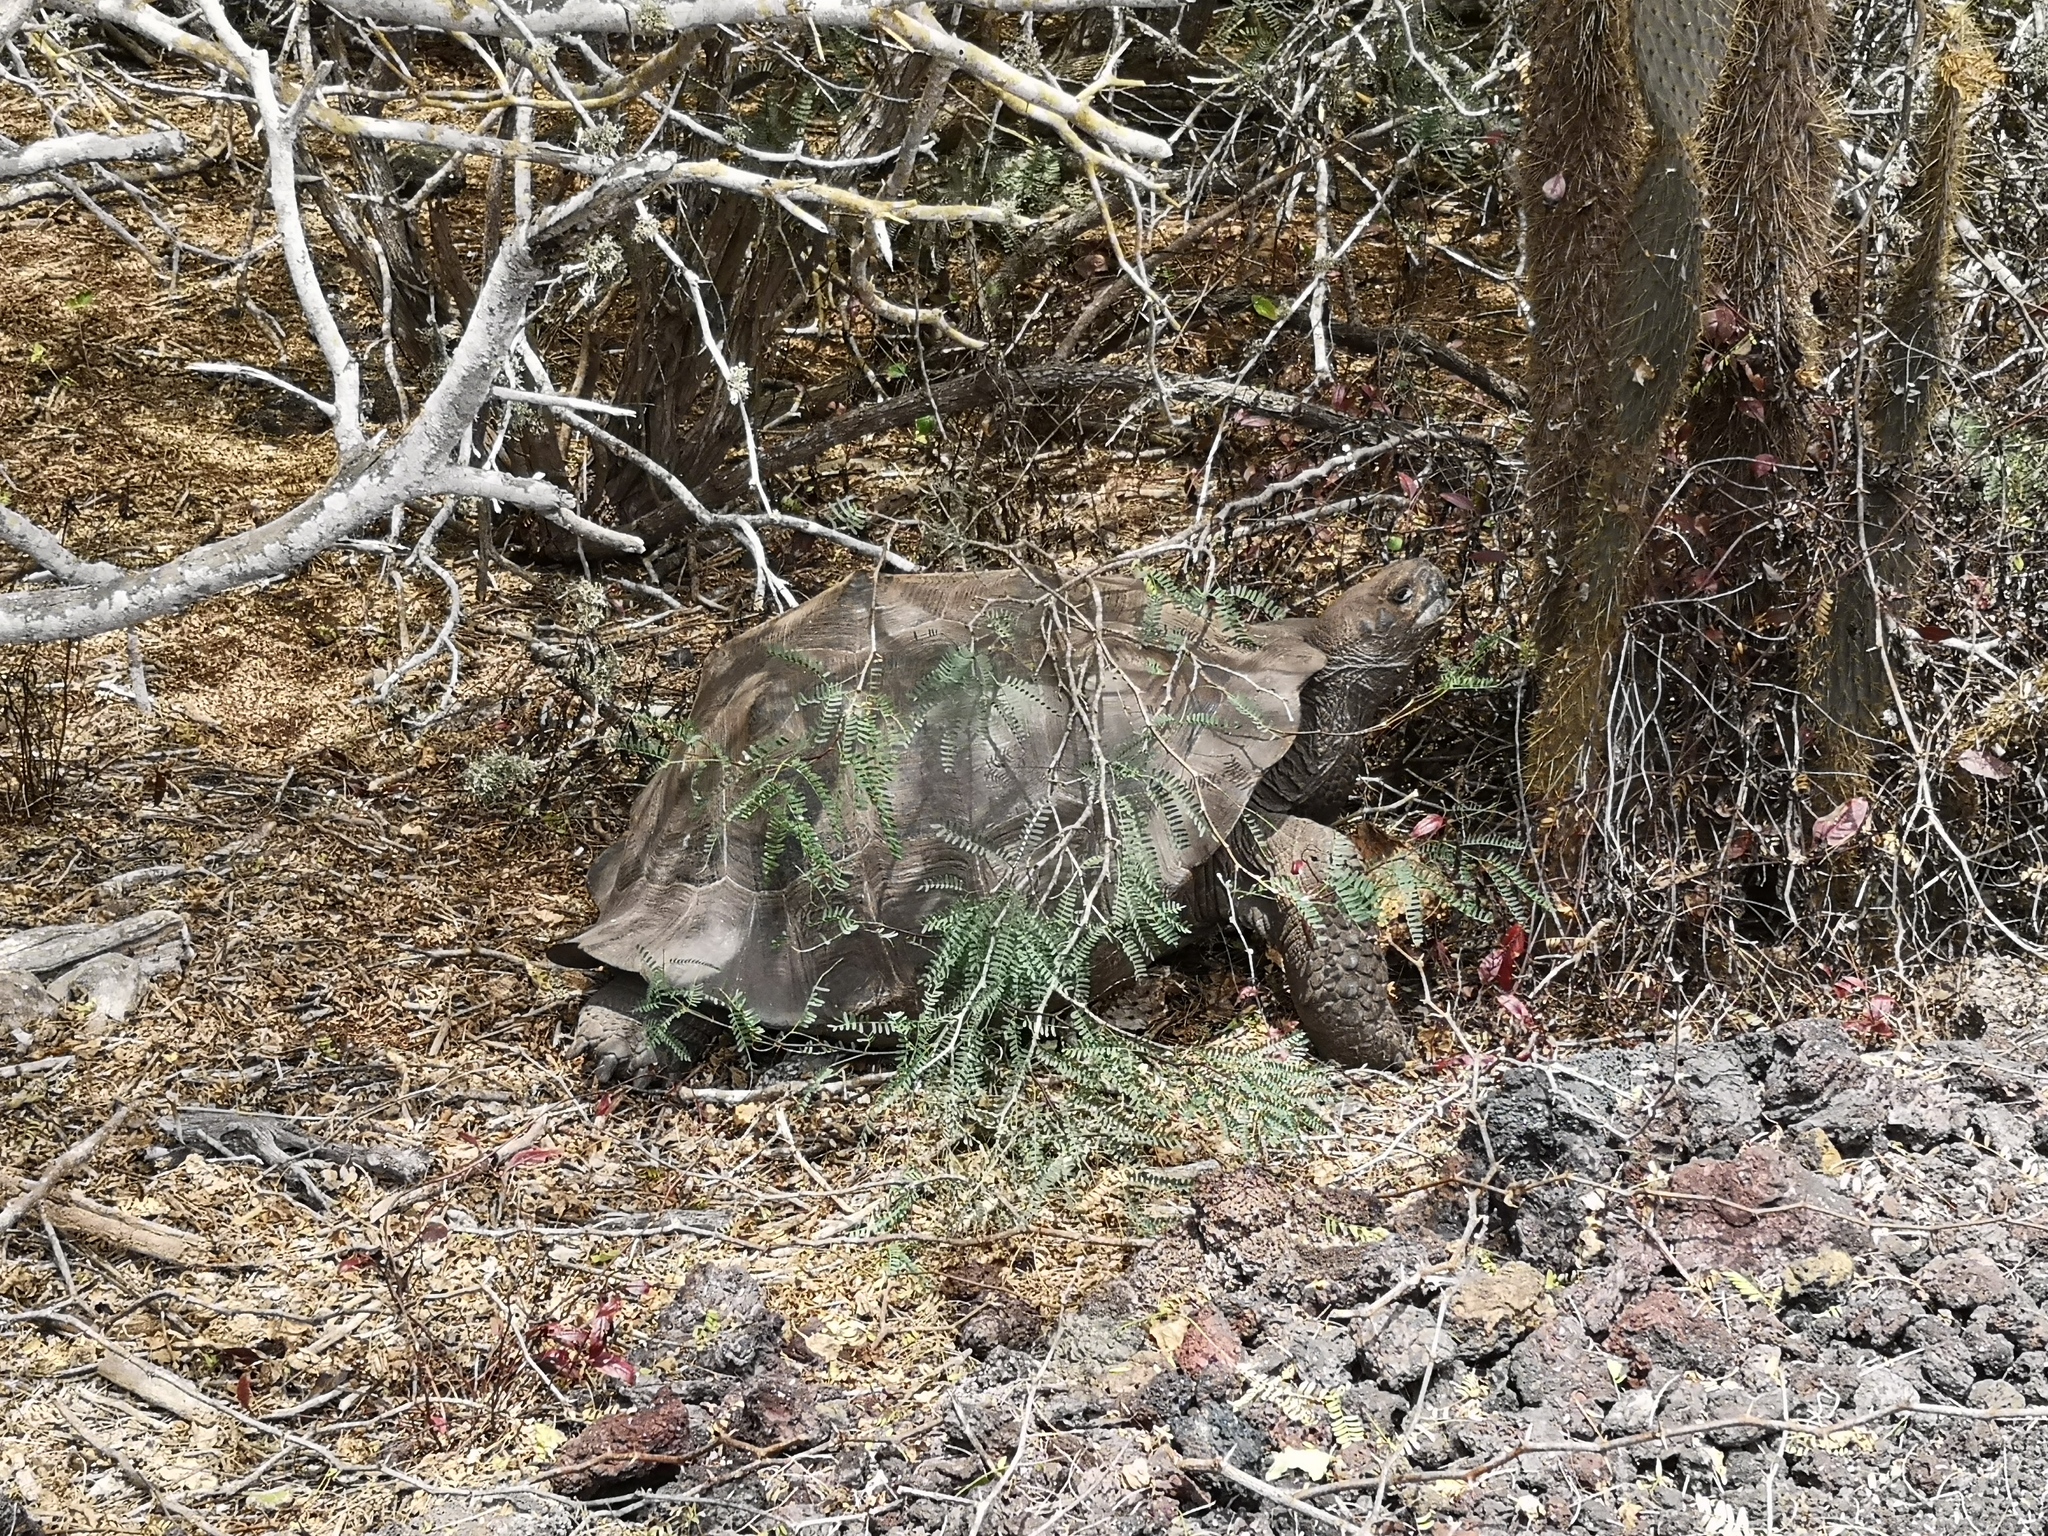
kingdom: Animalia
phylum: Chordata
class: Testudines
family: Testudinidae
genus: Chelonoidis
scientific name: Chelonoidis guntheri
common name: Sierra negra giant tortoise
